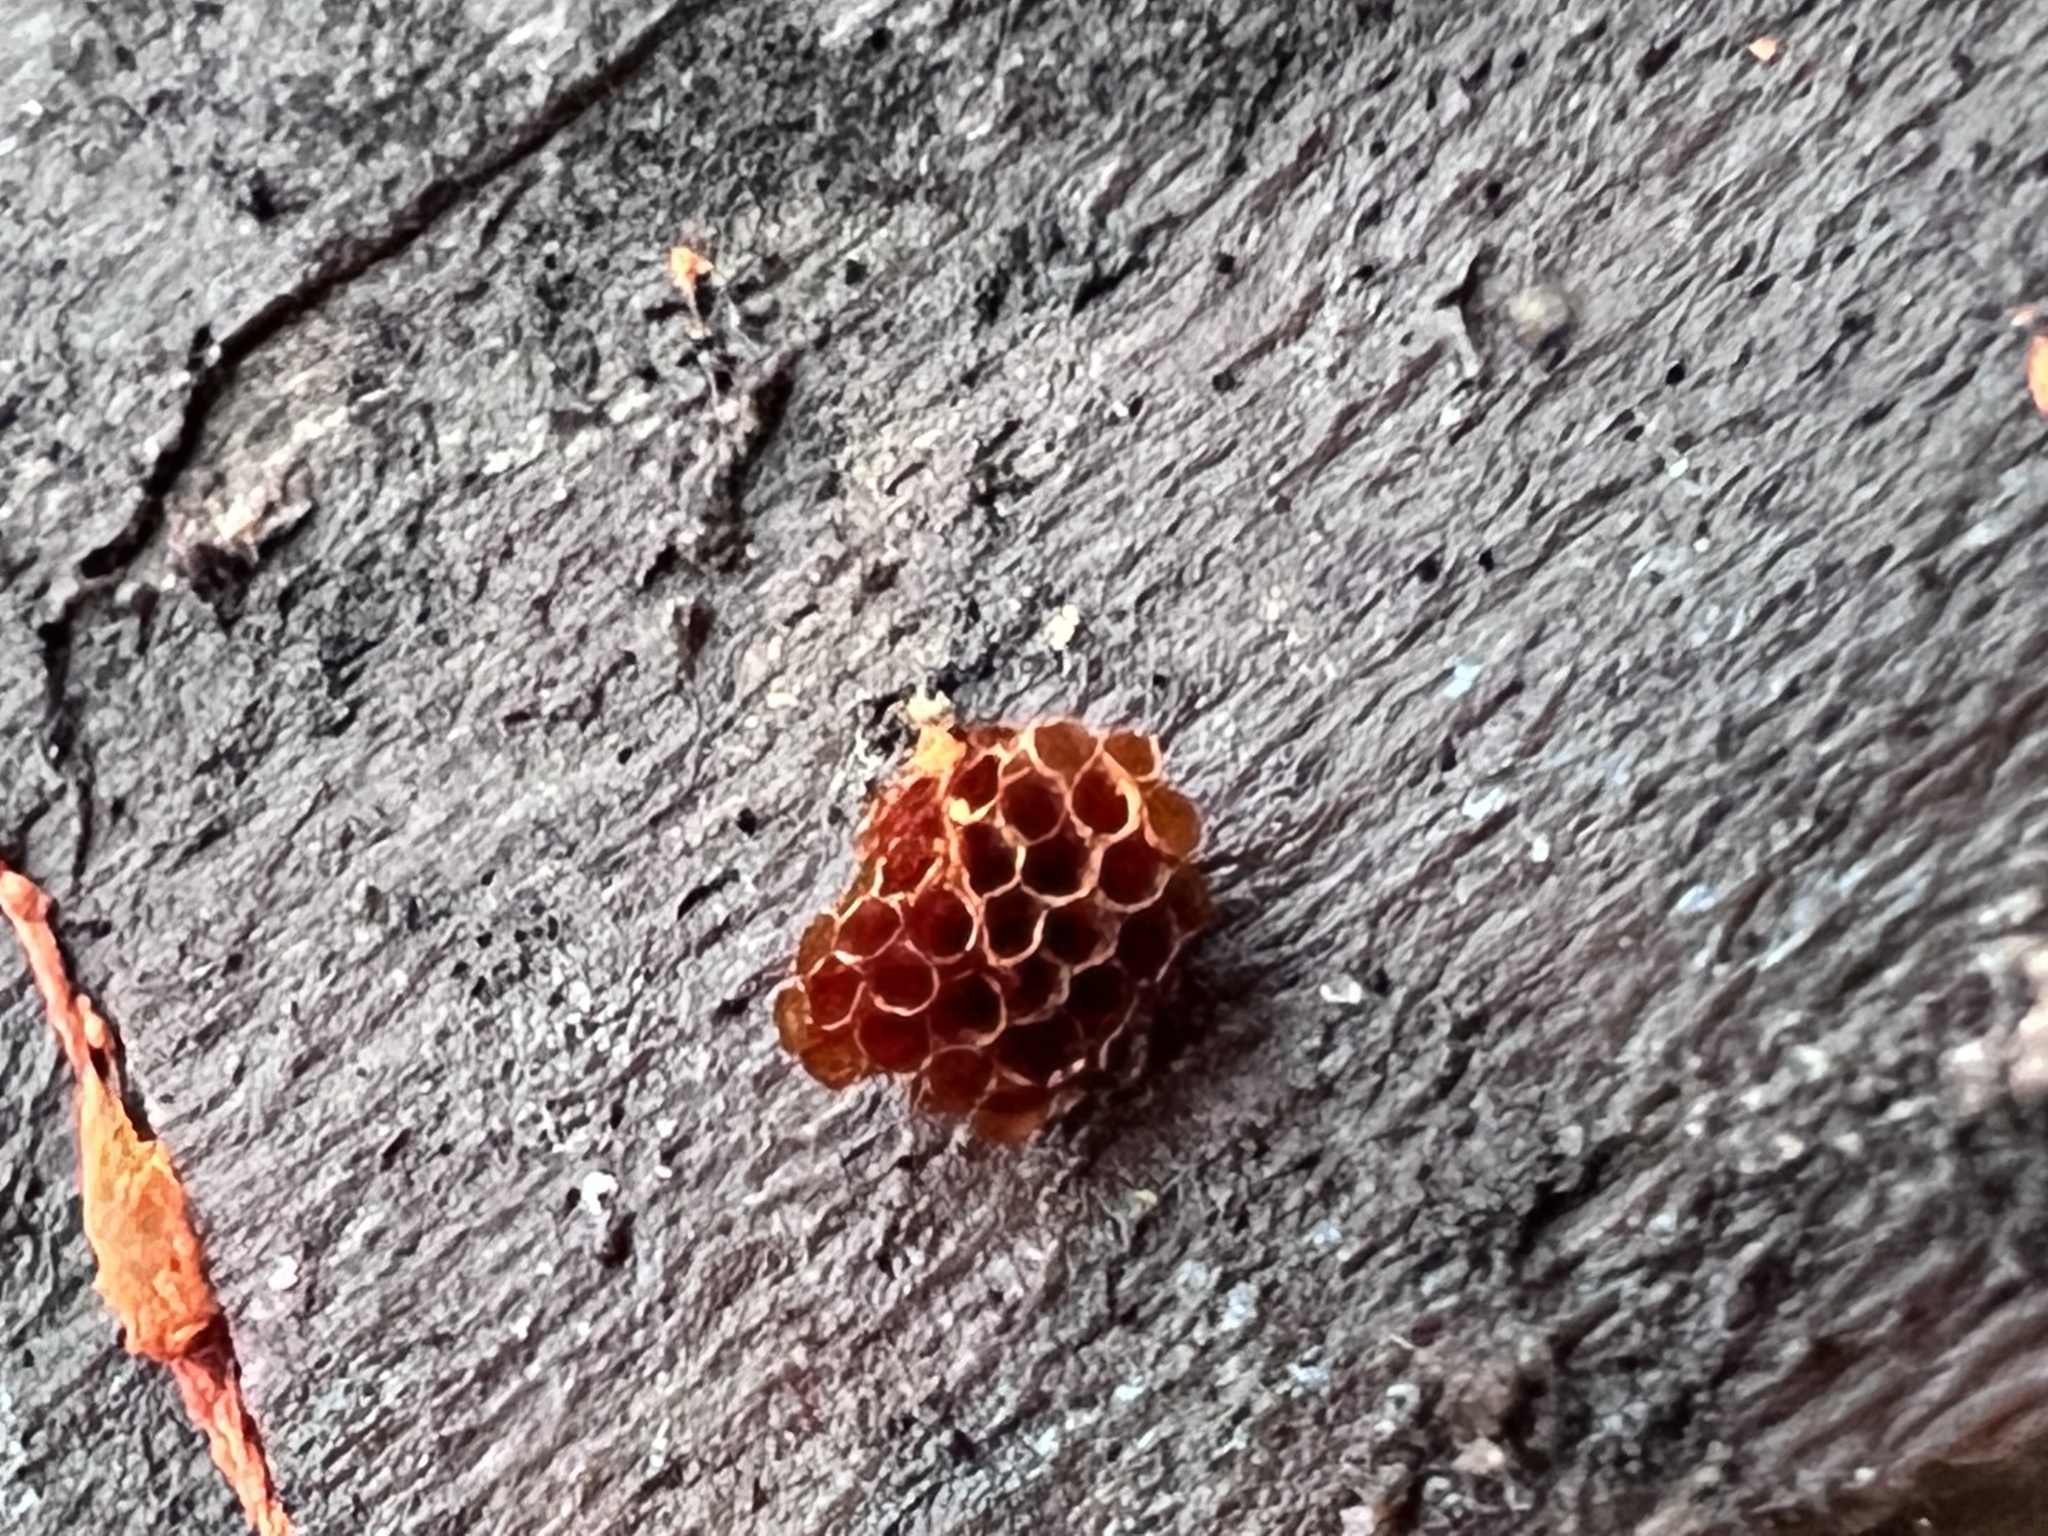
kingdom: Protozoa
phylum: Mycetozoa
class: Myxomycetes
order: Trichiales
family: Trichiaceae
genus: Metatrichia
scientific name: Metatrichia vesparia
